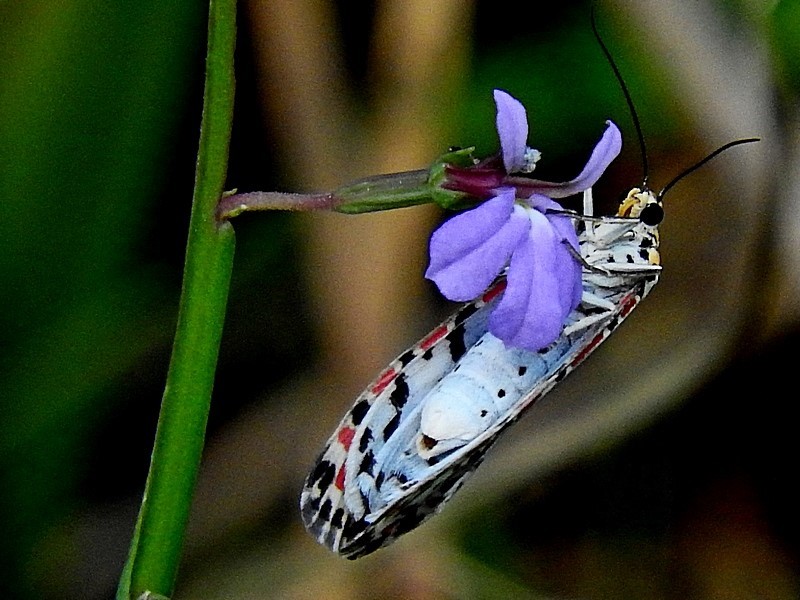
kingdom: Animalia
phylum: Arthropoda
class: Insecta
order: Lepidoptera
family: Erebidae
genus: Utetheisa
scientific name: Utetheisa pulchelloides
